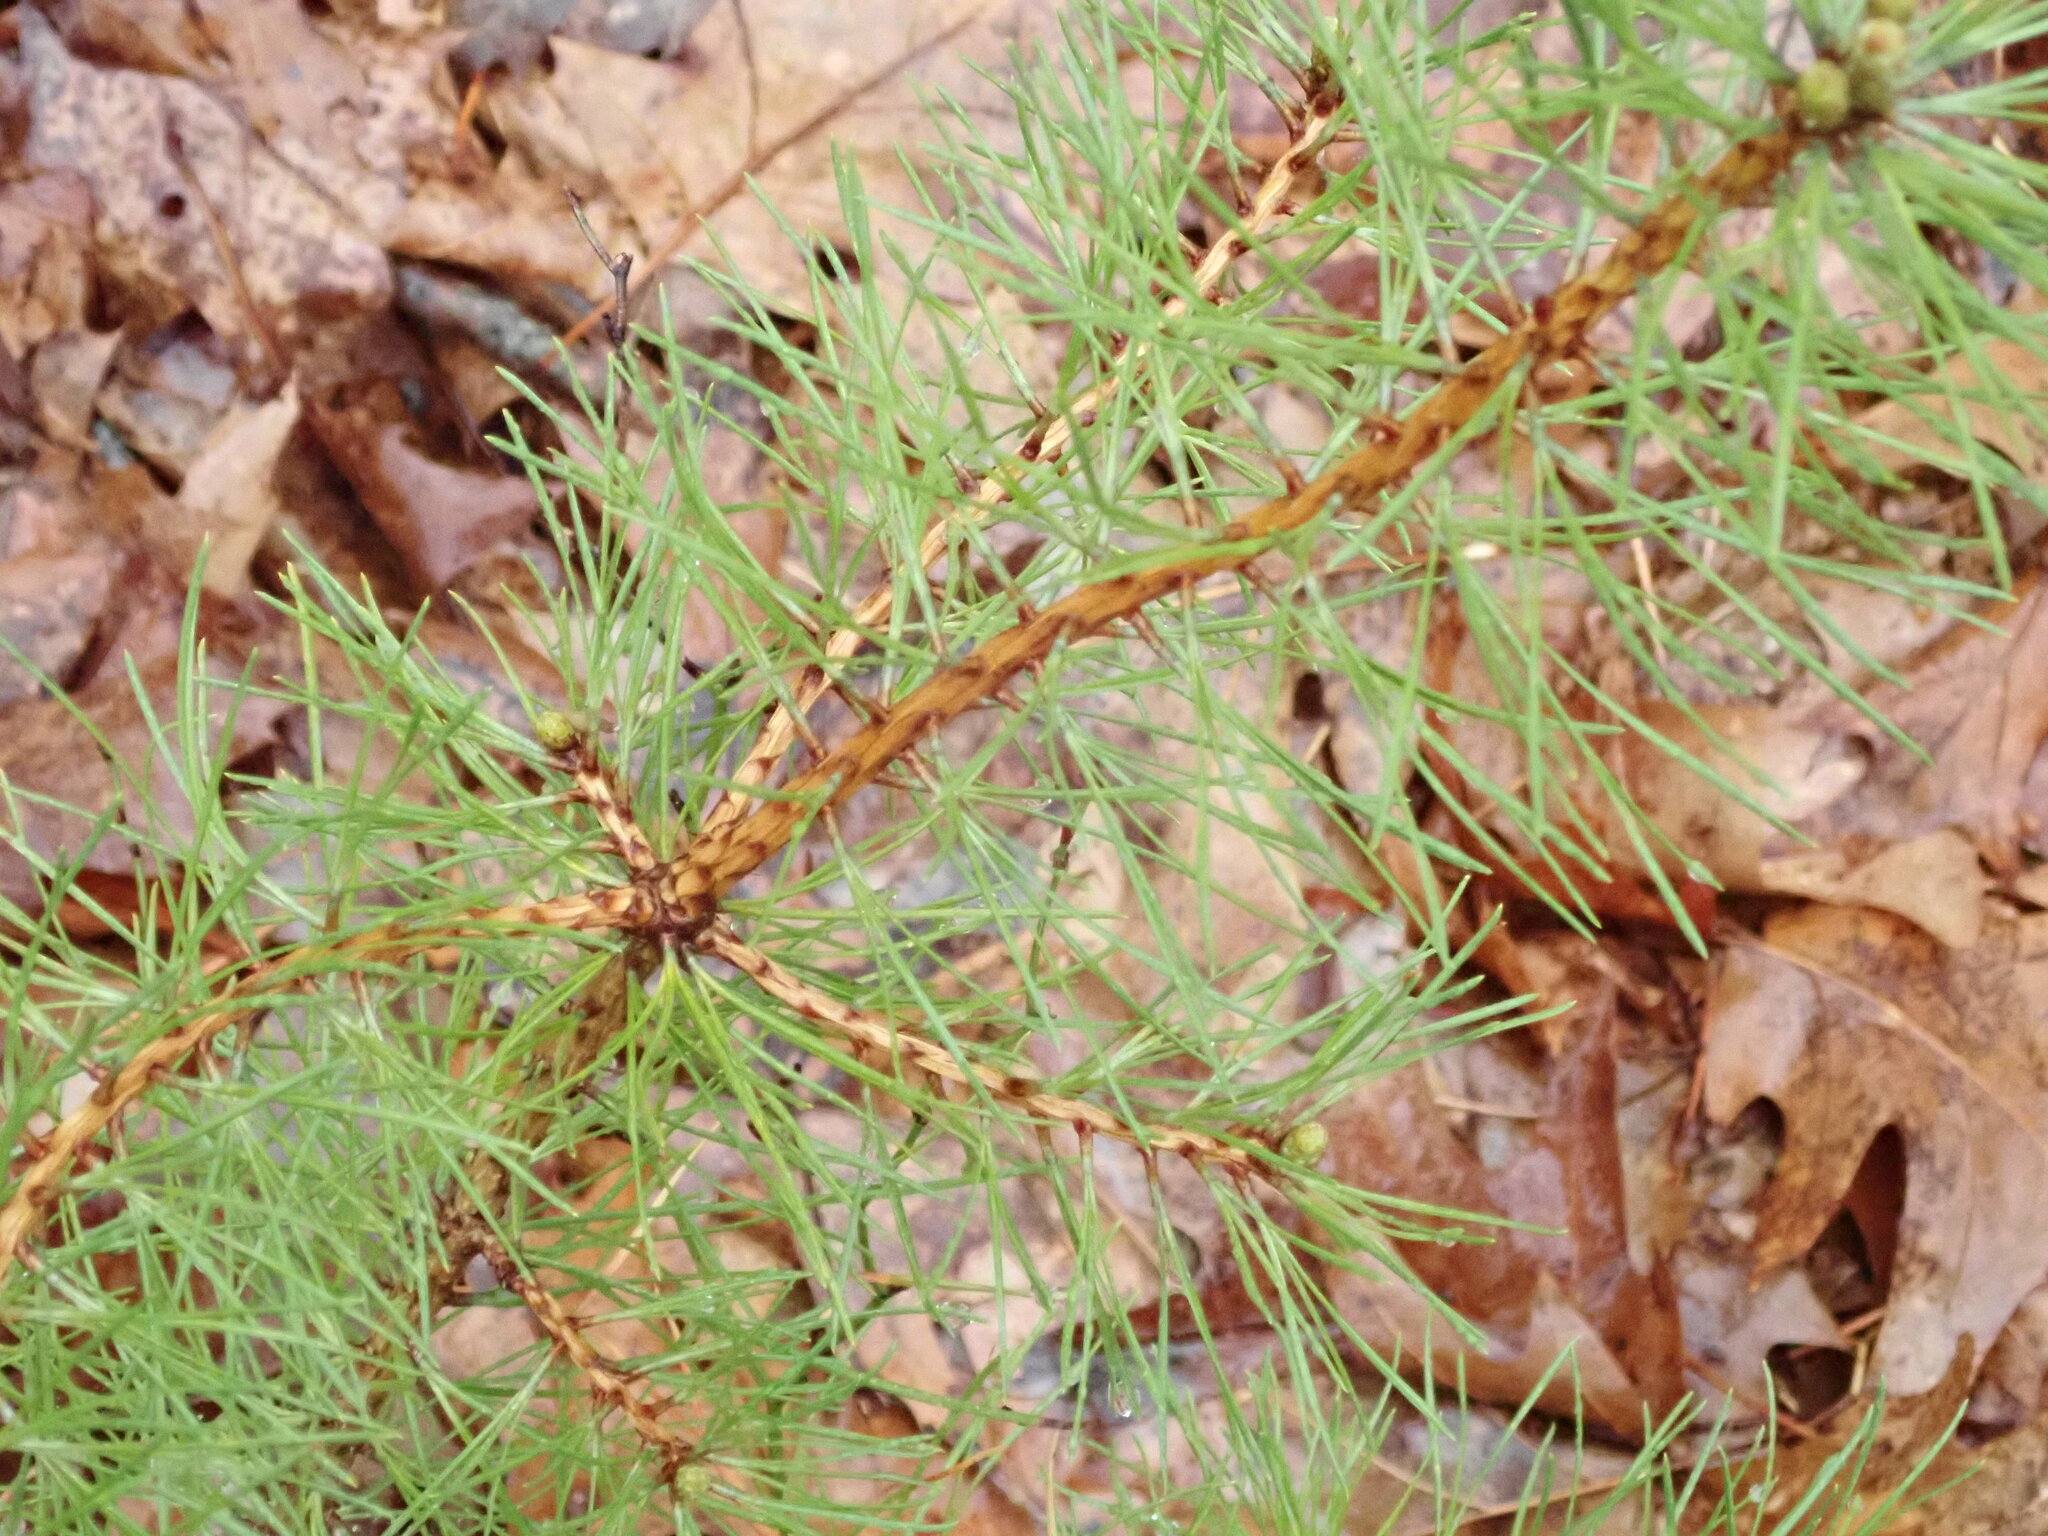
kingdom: Plantae
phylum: Tracheophyta
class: Pinopsida
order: Pinales
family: Pinaceae
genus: Pinus
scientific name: Pinus rigida
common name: Pitch pine
